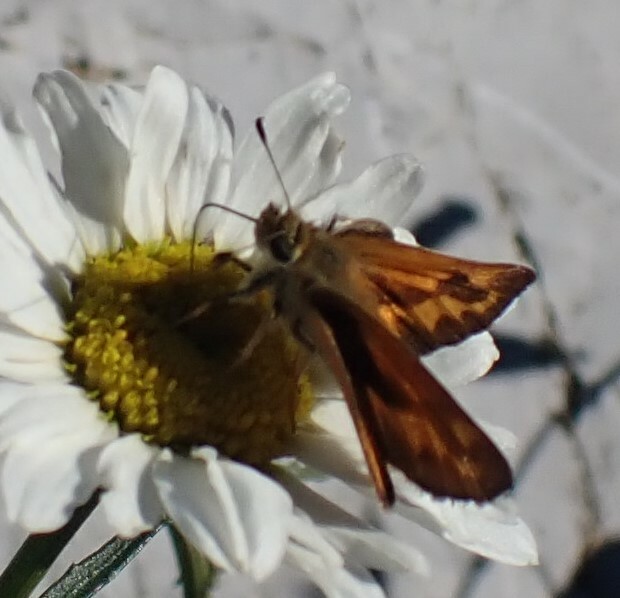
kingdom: Animalia
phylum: Arthropoda
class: Insecta
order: Lepidoptera
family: Hesperiidae
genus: Ochlodes
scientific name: Ochlodes sylvanoides
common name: Woodland skipper
